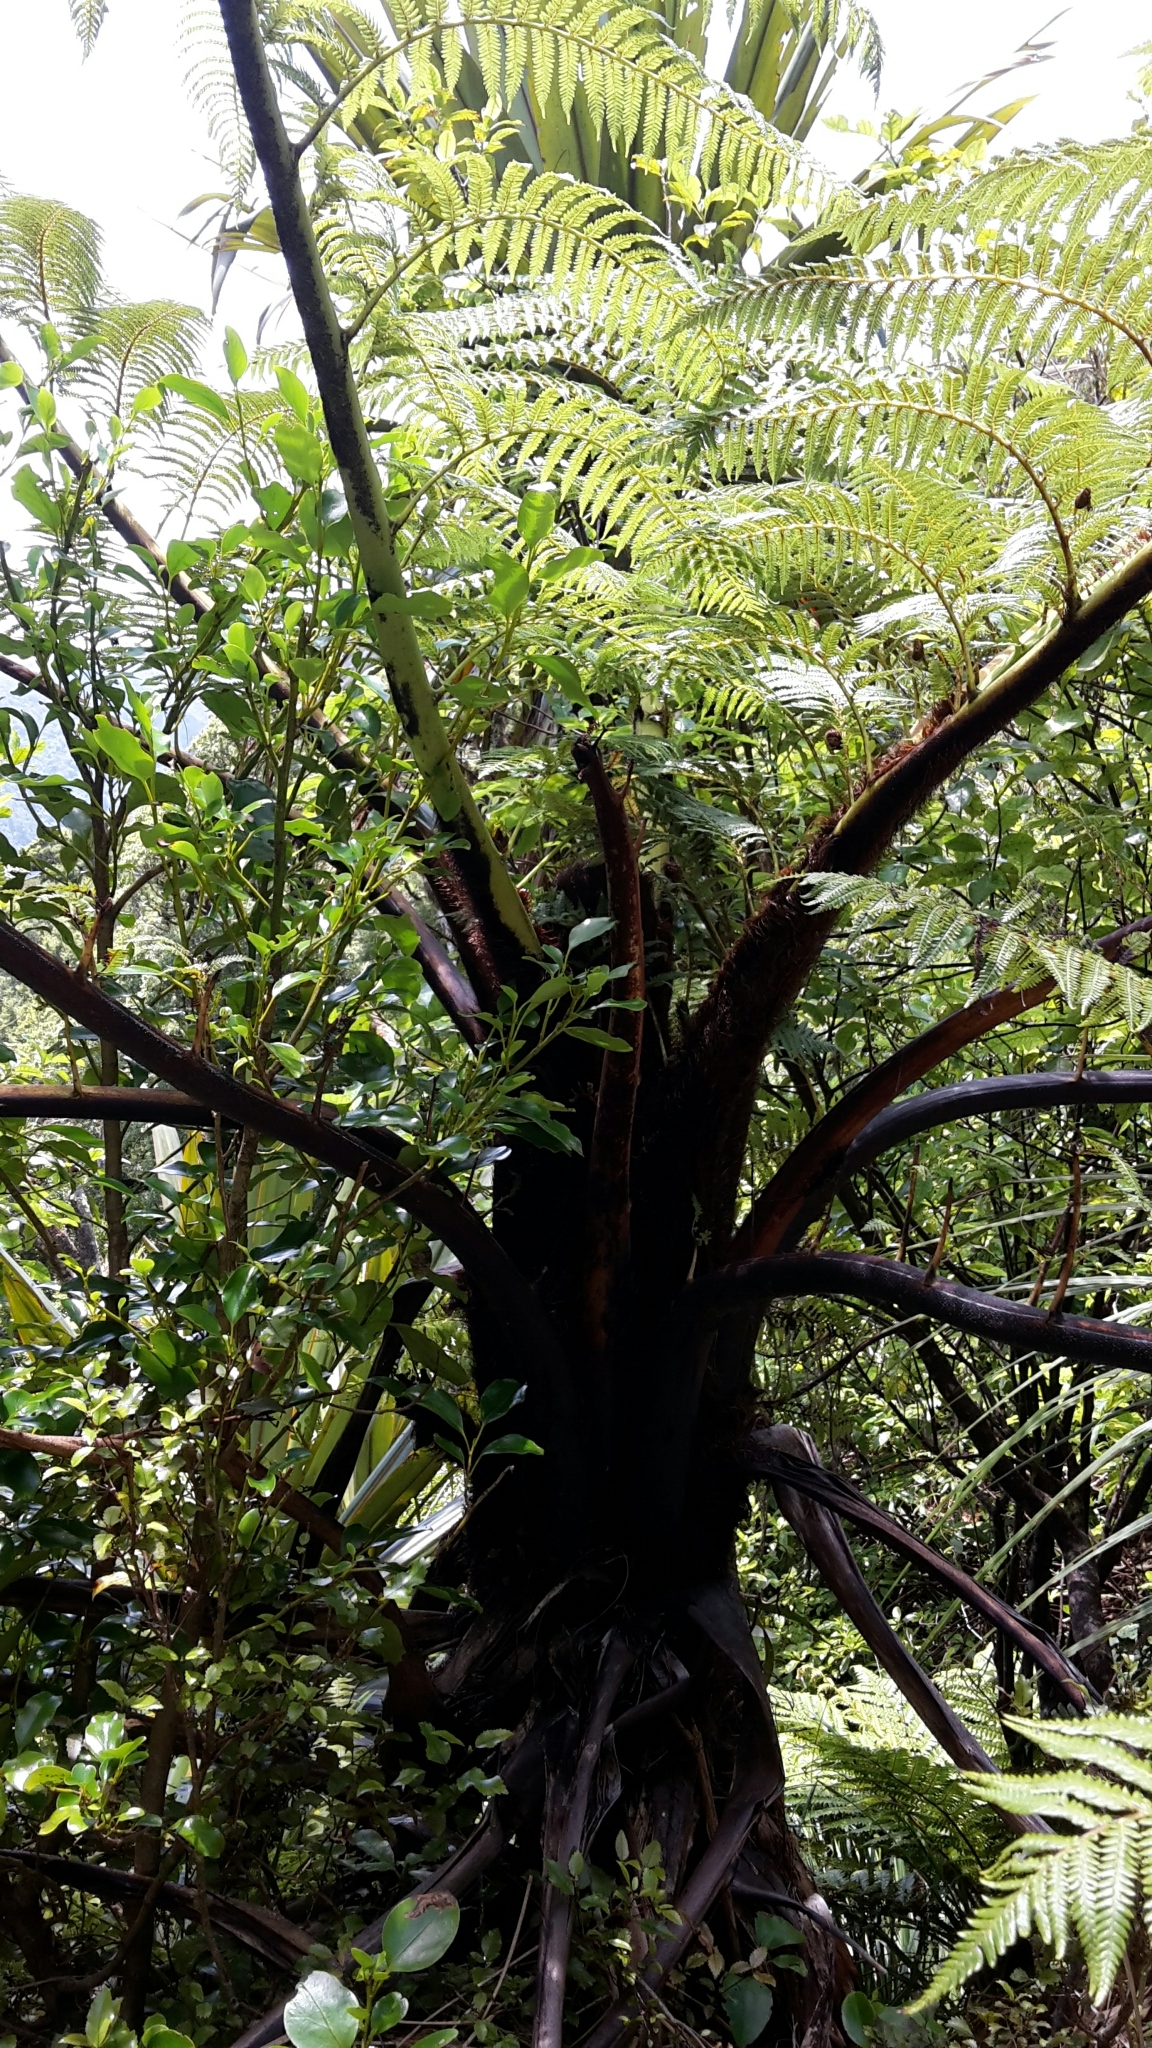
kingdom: Plantae
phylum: Tracheophyta
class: Polypodiopsida
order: Cyatheales
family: Cyatheaceae
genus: Sphaeropteris
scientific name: Sphaeropteris medullaris
